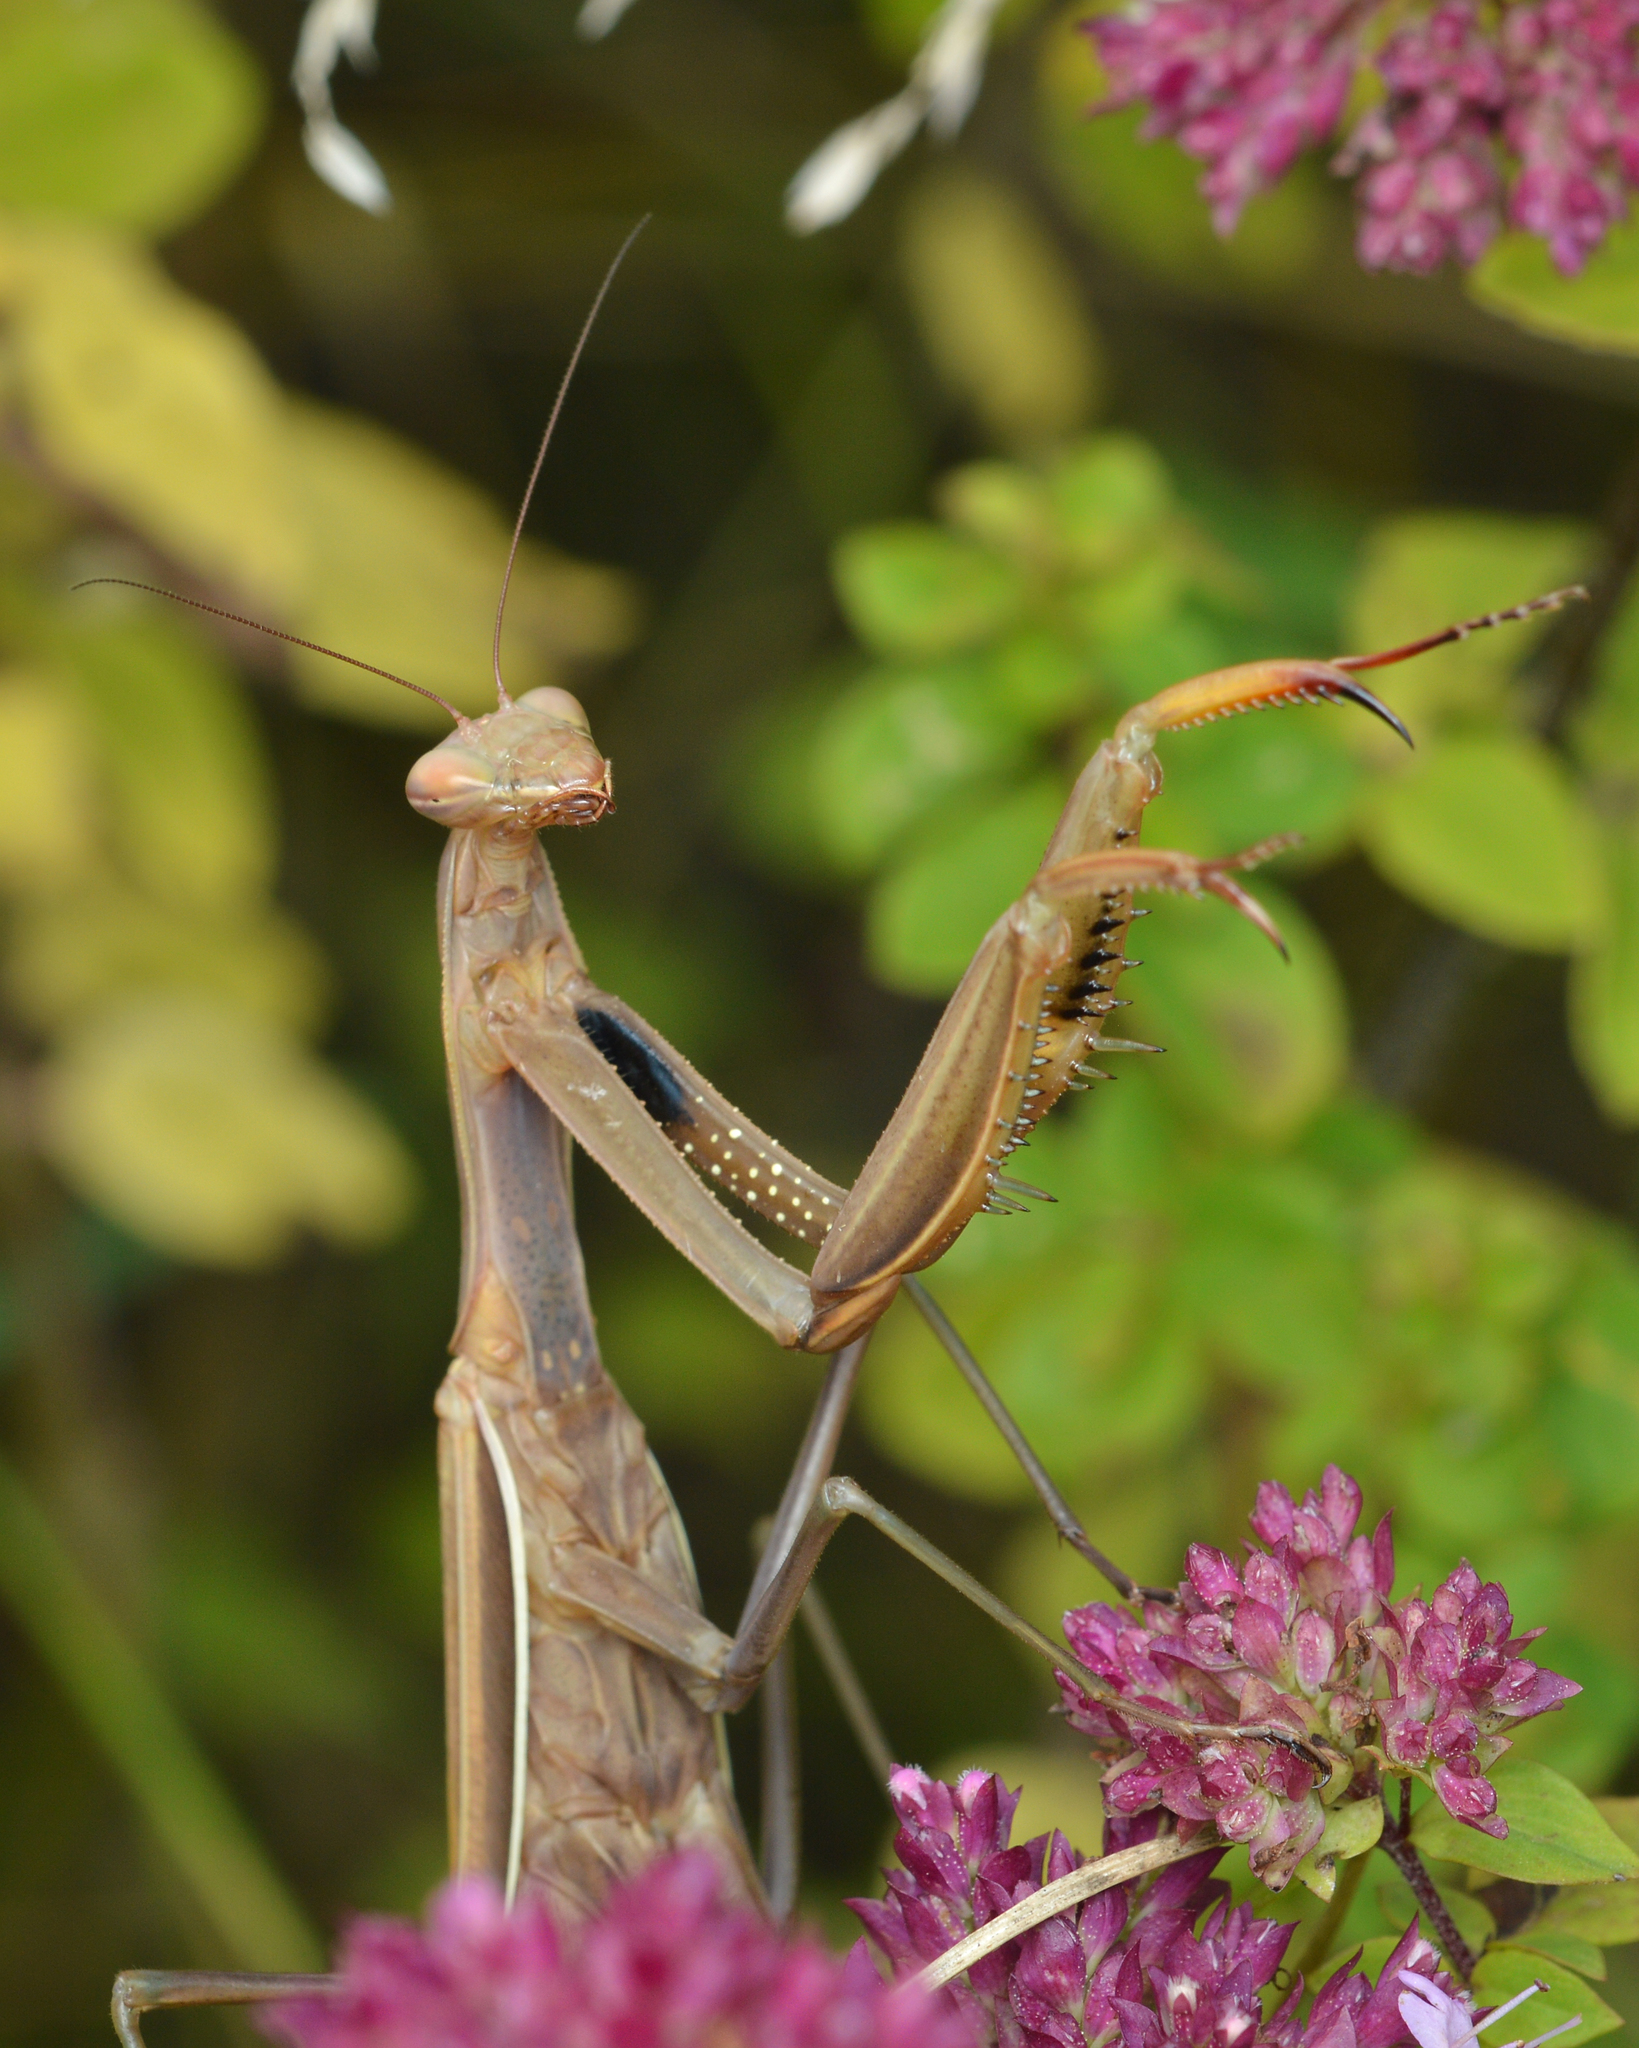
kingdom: Animalia
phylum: Arthropoda
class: Insecta
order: Mantodea
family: Mantidae
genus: Mantis
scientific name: Mantis religiosa
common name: Praying mantis
